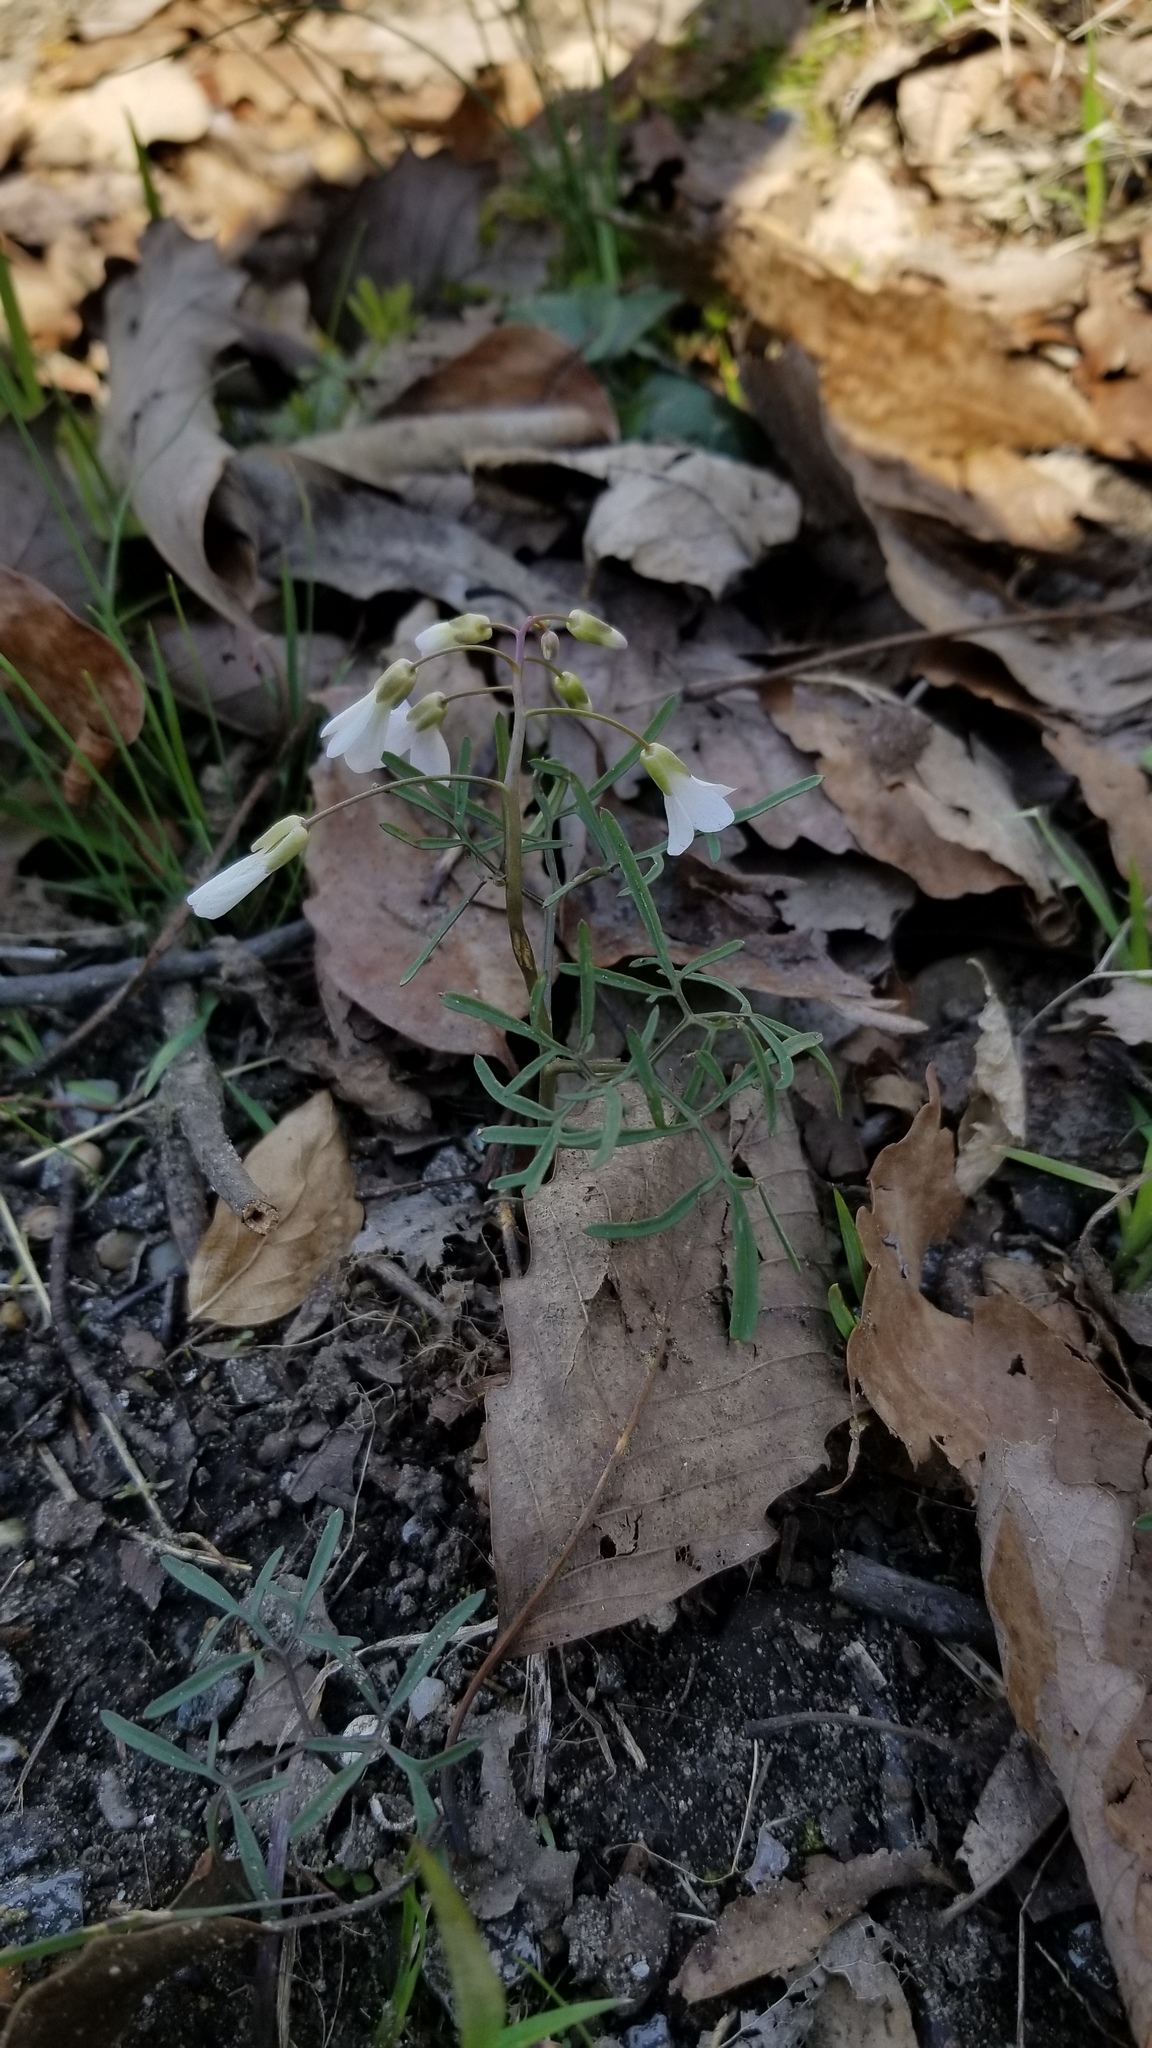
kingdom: Plantae
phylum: Tracheophyta
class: Magnoliopsida
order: Brassicales
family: Brassicaceae
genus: Cardamine
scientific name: Cardamine dissecta
